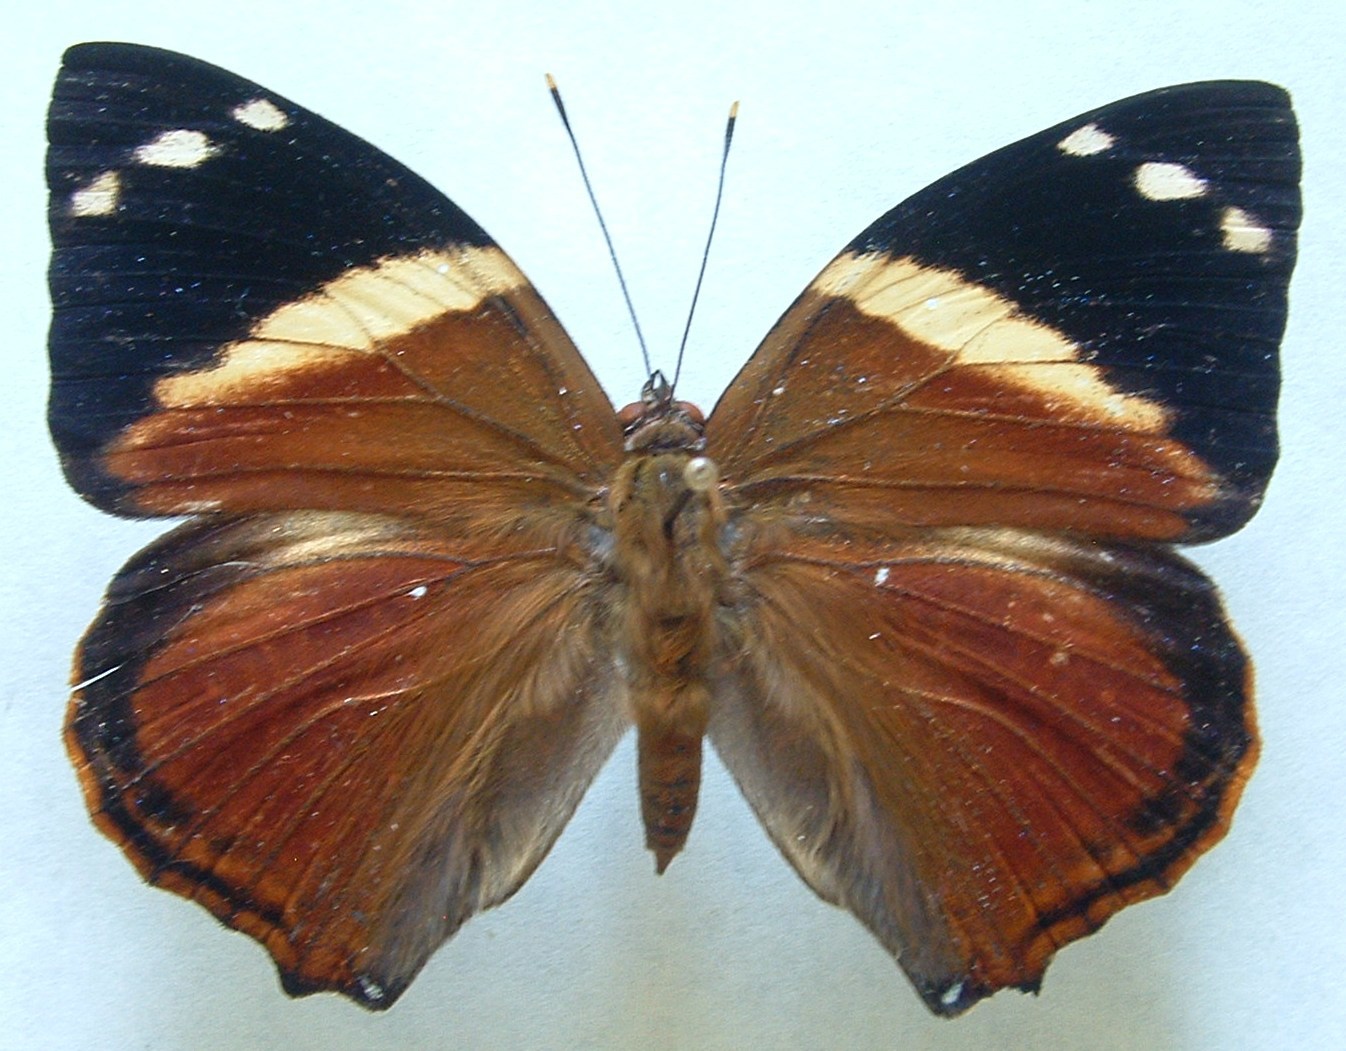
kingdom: Animalia
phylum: Arthropoda
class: Insecta
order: Lepidoptera
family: Nymphalidae
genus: Smyrna
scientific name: Smyrna blomfildia
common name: Blomfild's beauty
